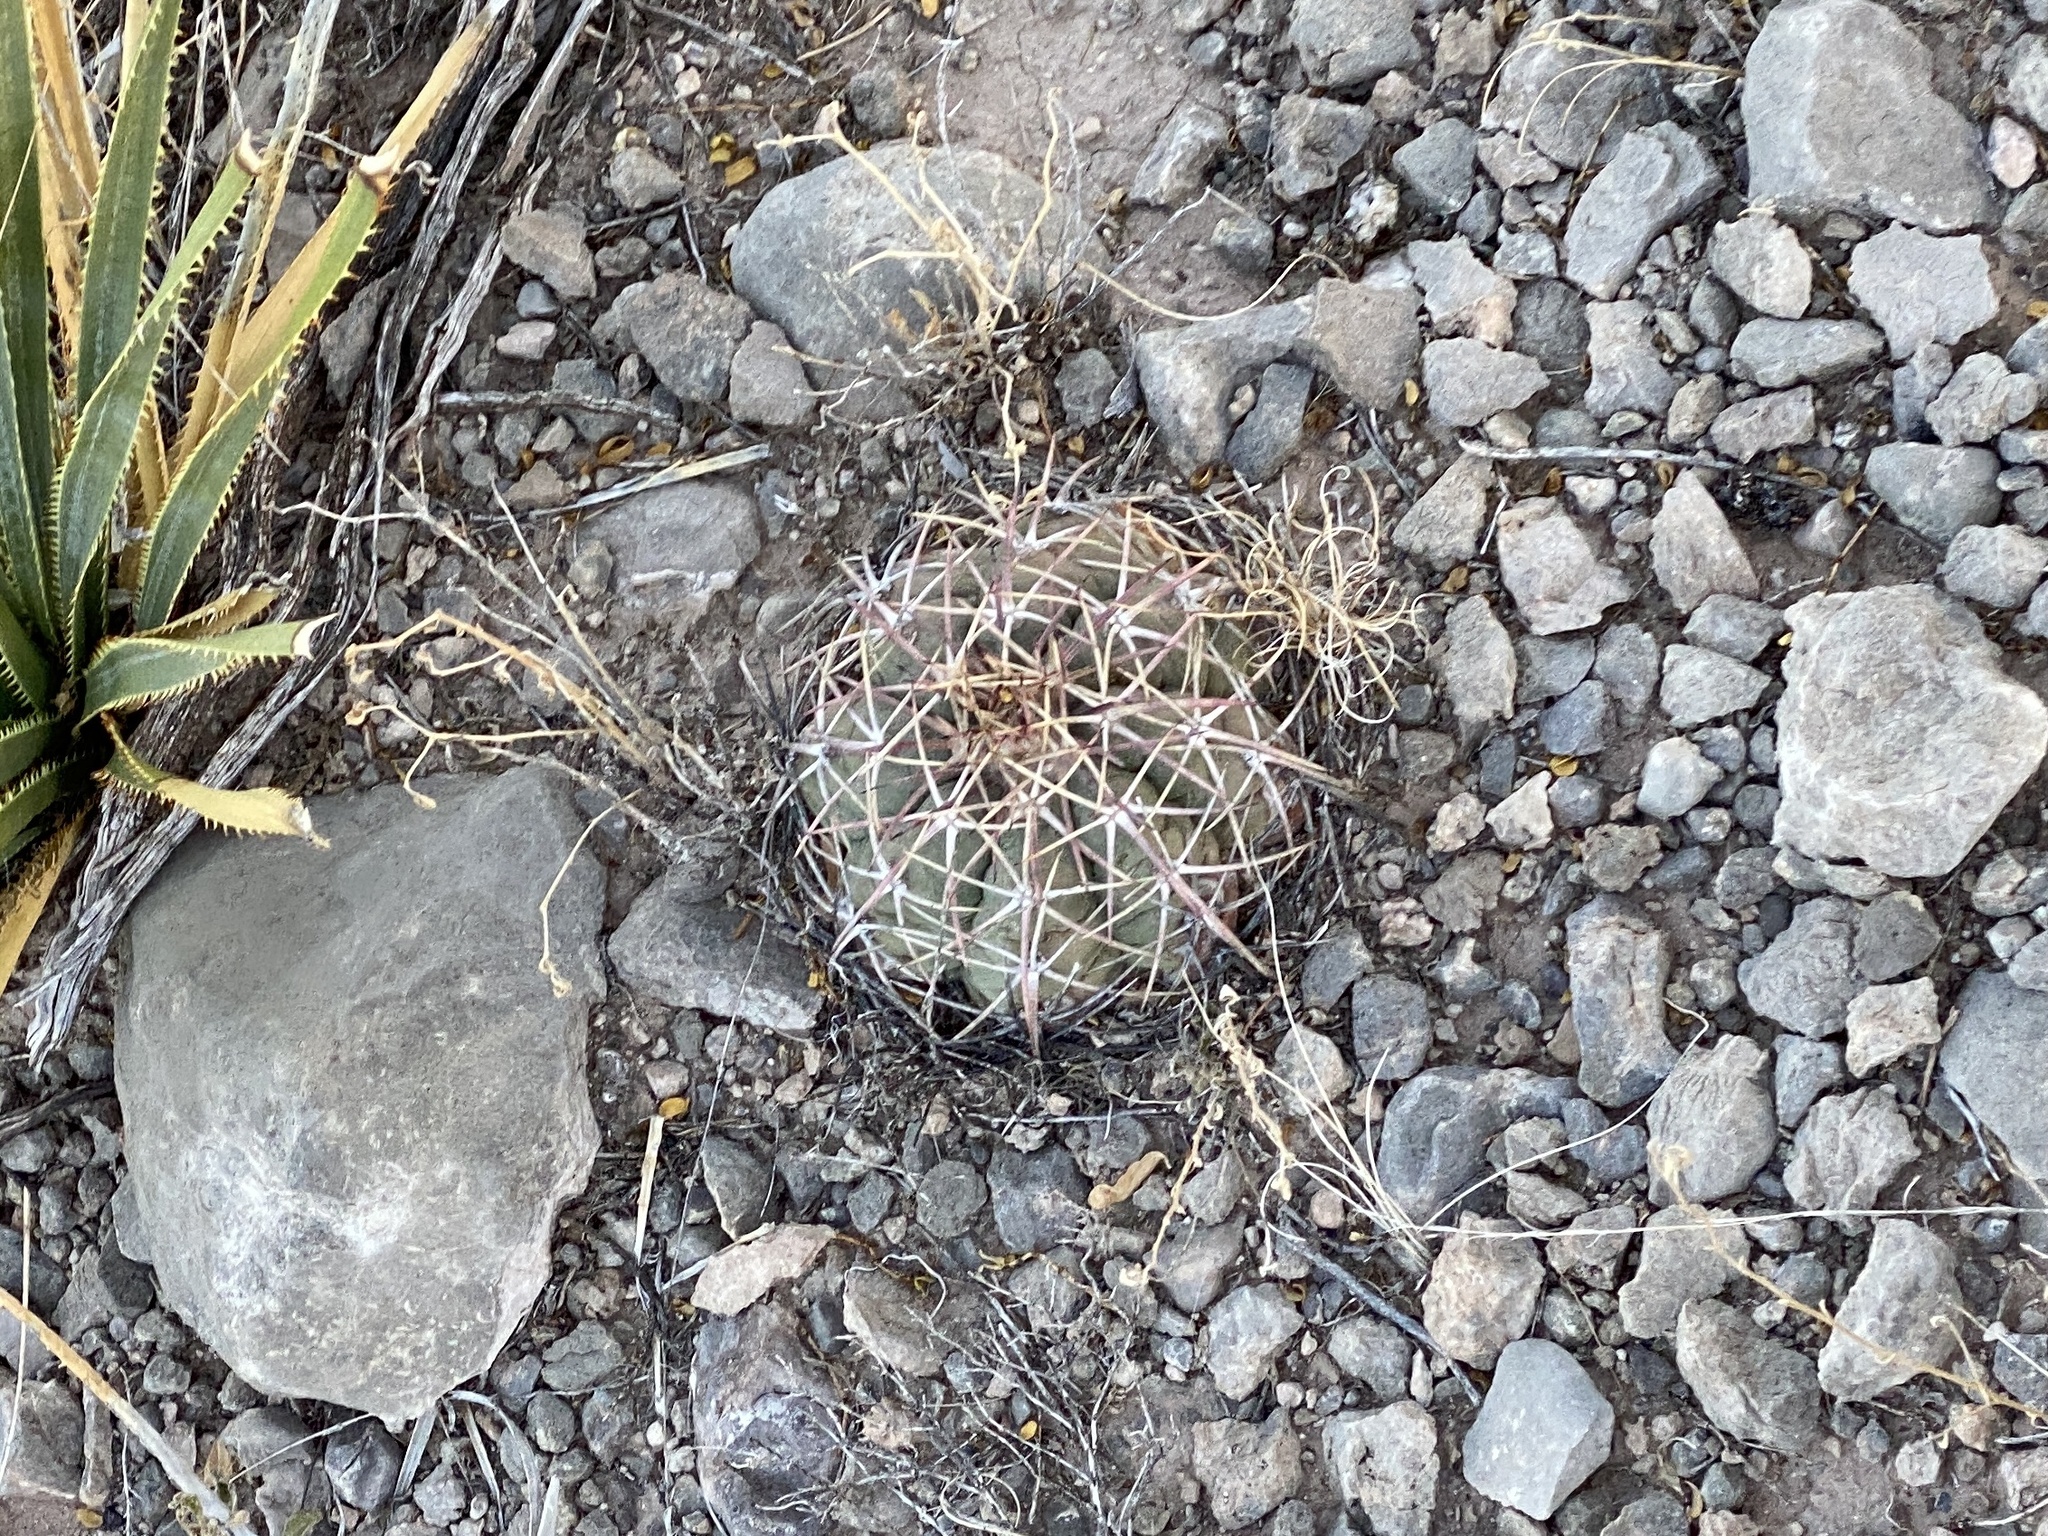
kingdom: Plantae
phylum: Tracheophyta
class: Magnoliopsida
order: Caryophyllales
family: Cactaceae
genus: Echinocactus
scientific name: Echinocactus horizonthalonius
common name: Devilshead
